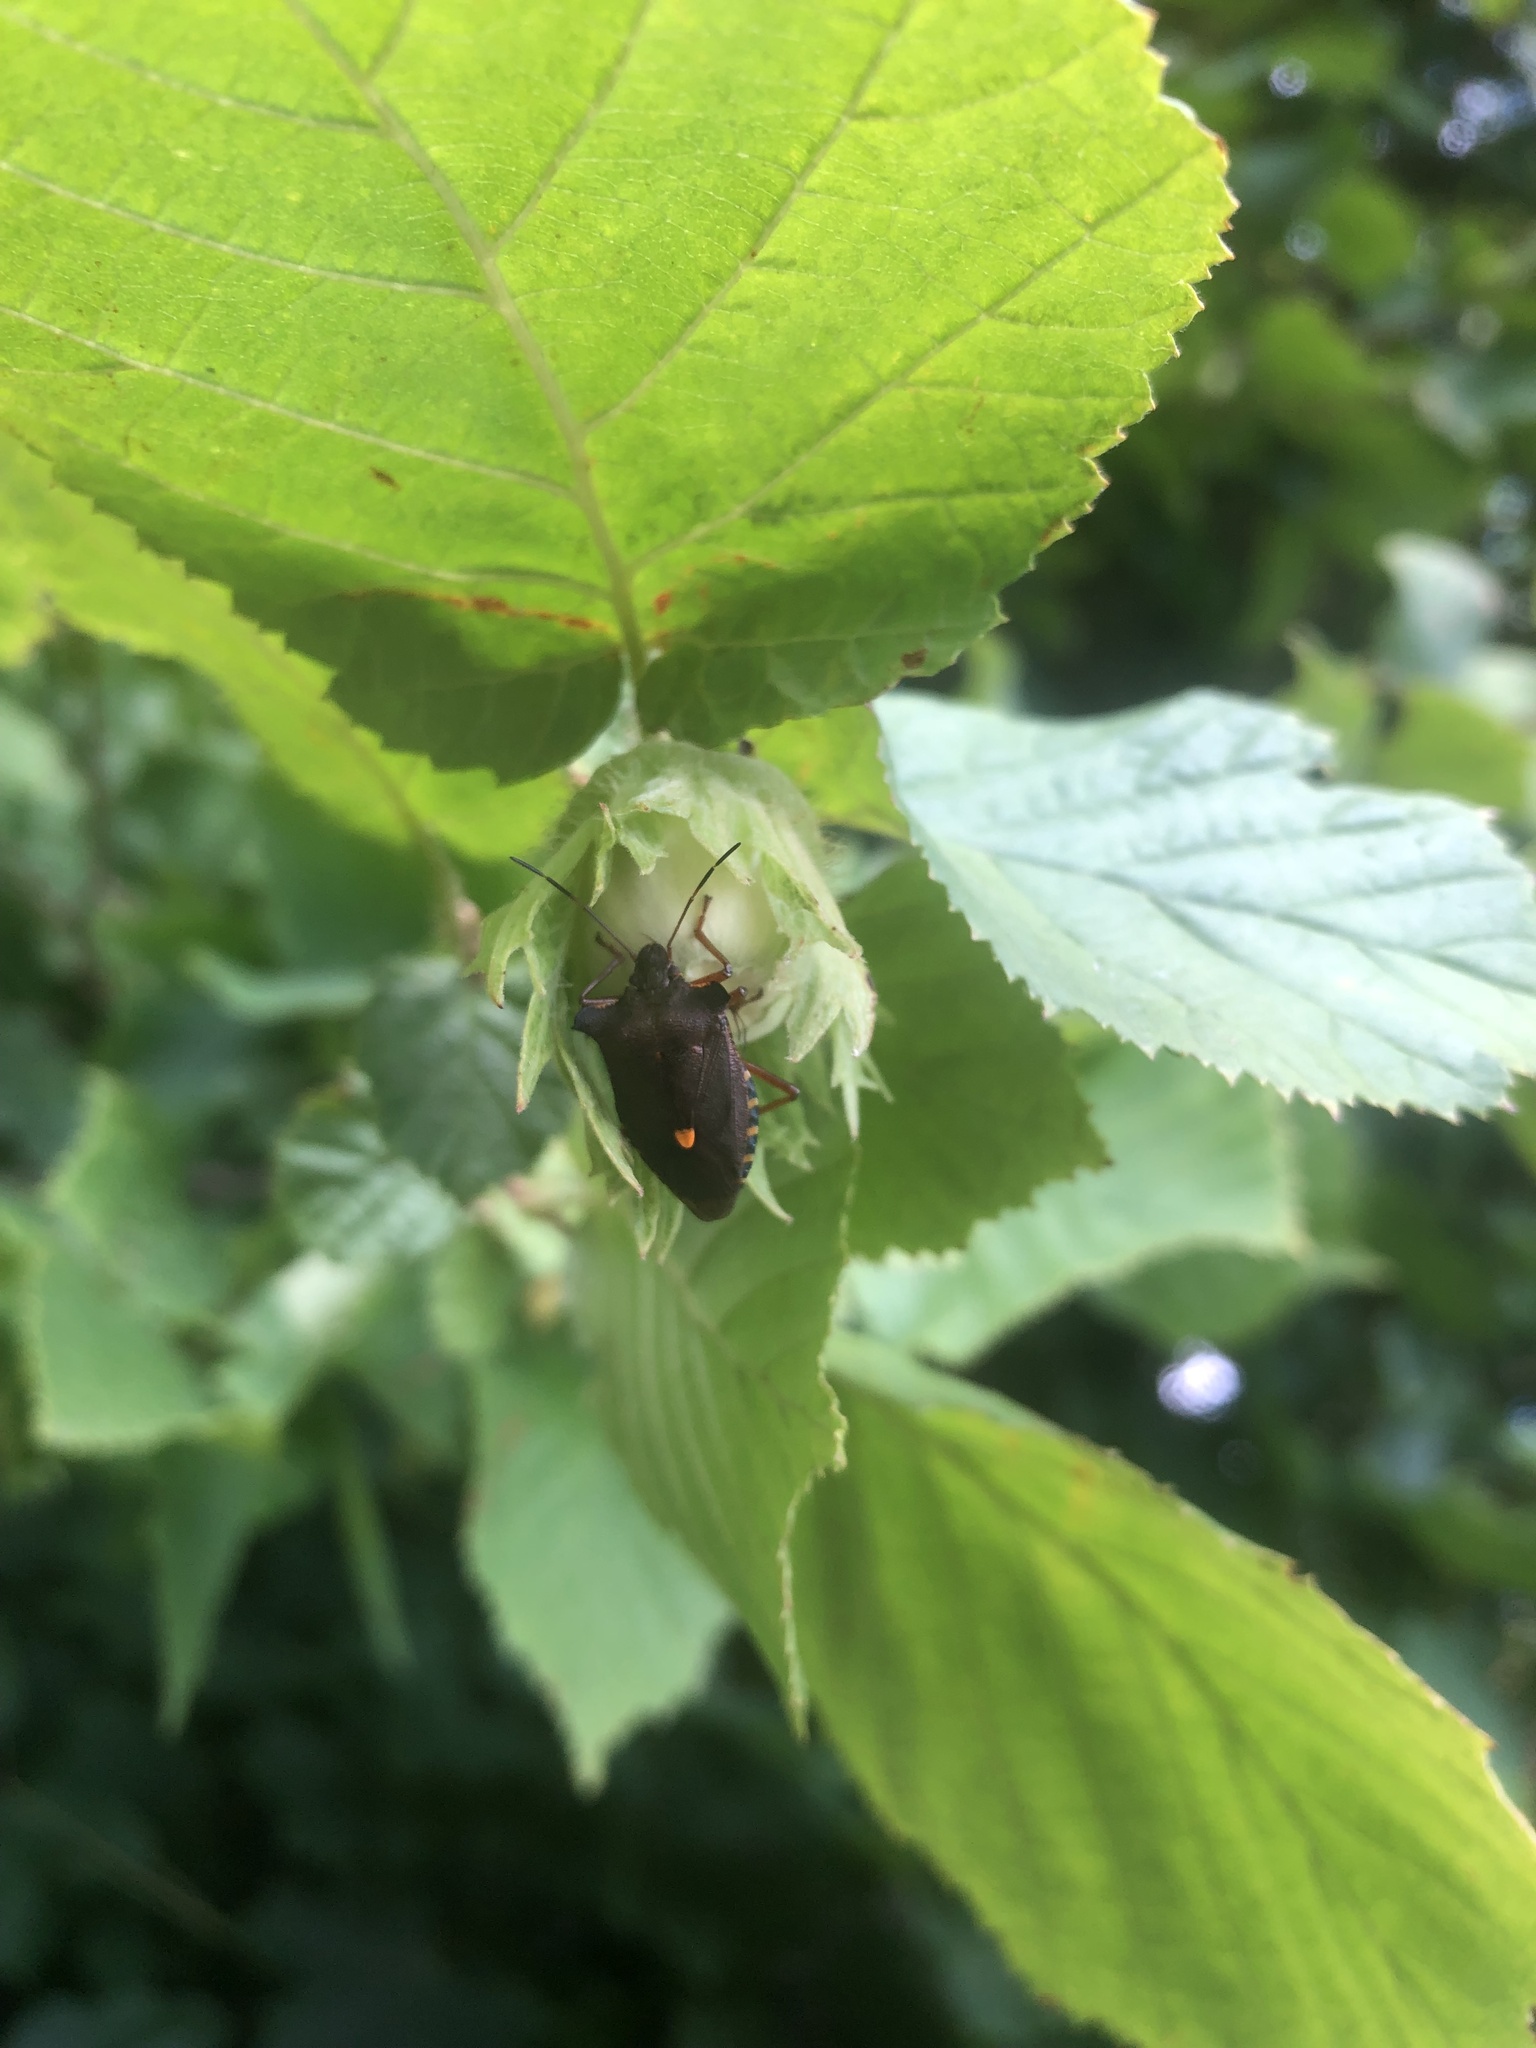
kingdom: Animalia
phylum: Arthropoda
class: Insecta
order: Hemiptera
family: Pentatomidae
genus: Pentatoma
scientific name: Pentatoma rufipes
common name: Forest bug
